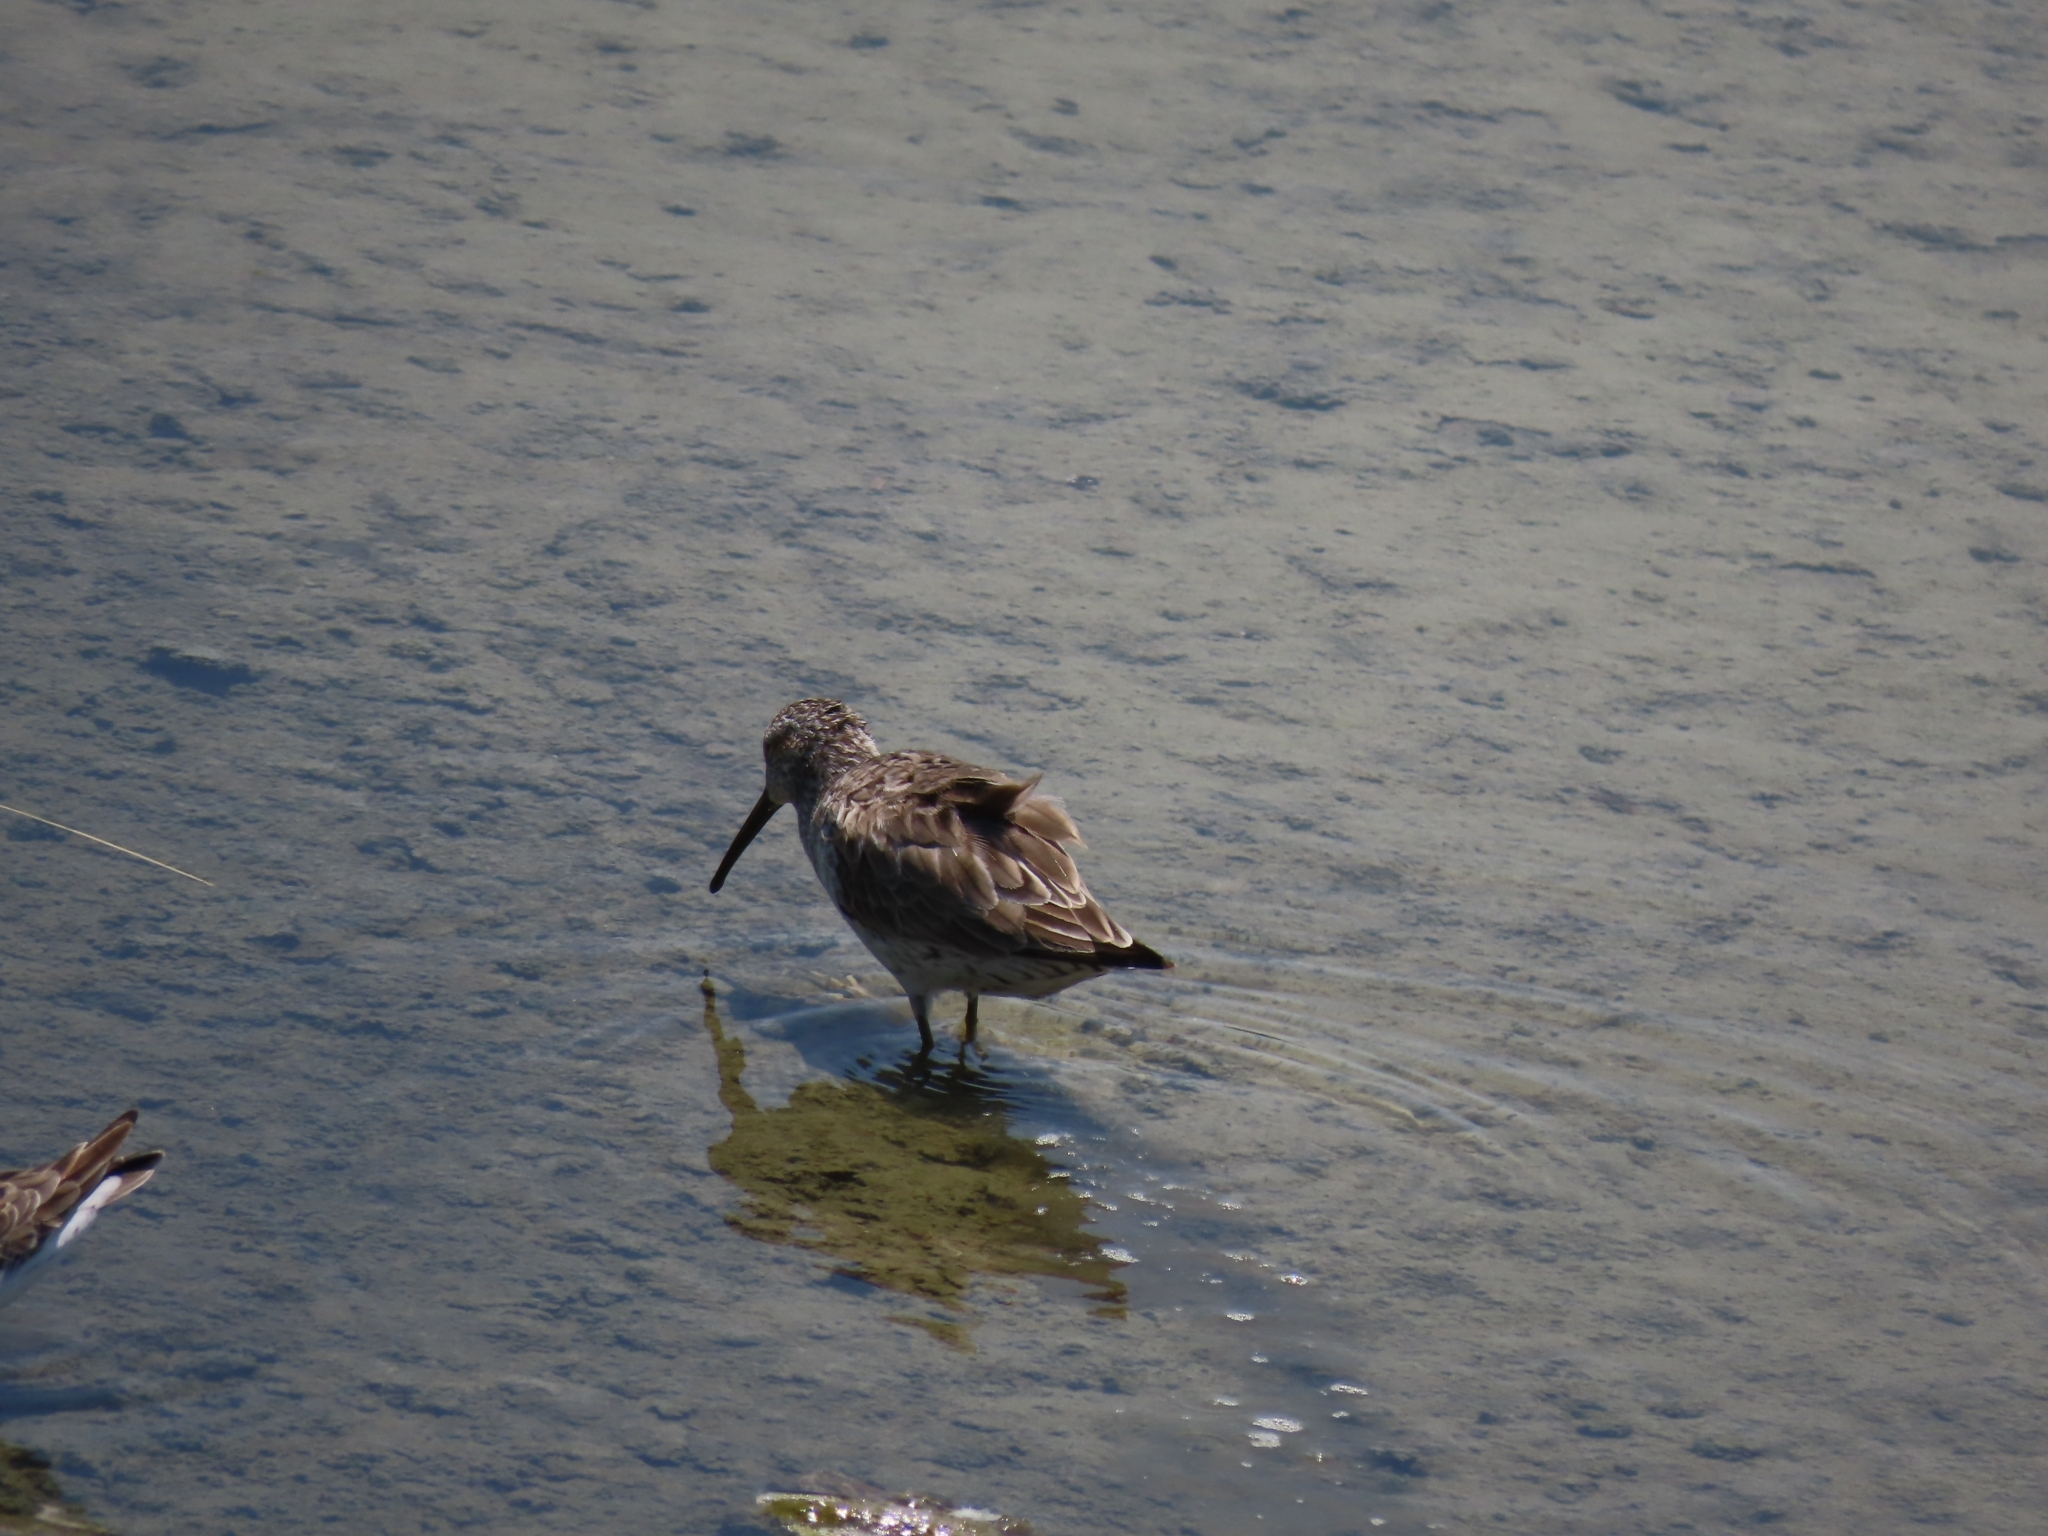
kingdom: Animalia
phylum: Chordata
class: Aves
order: Charadriiformes
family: Scolopacidae
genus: Calidris
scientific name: Calidris himantopus
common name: Stilt sandpiper
